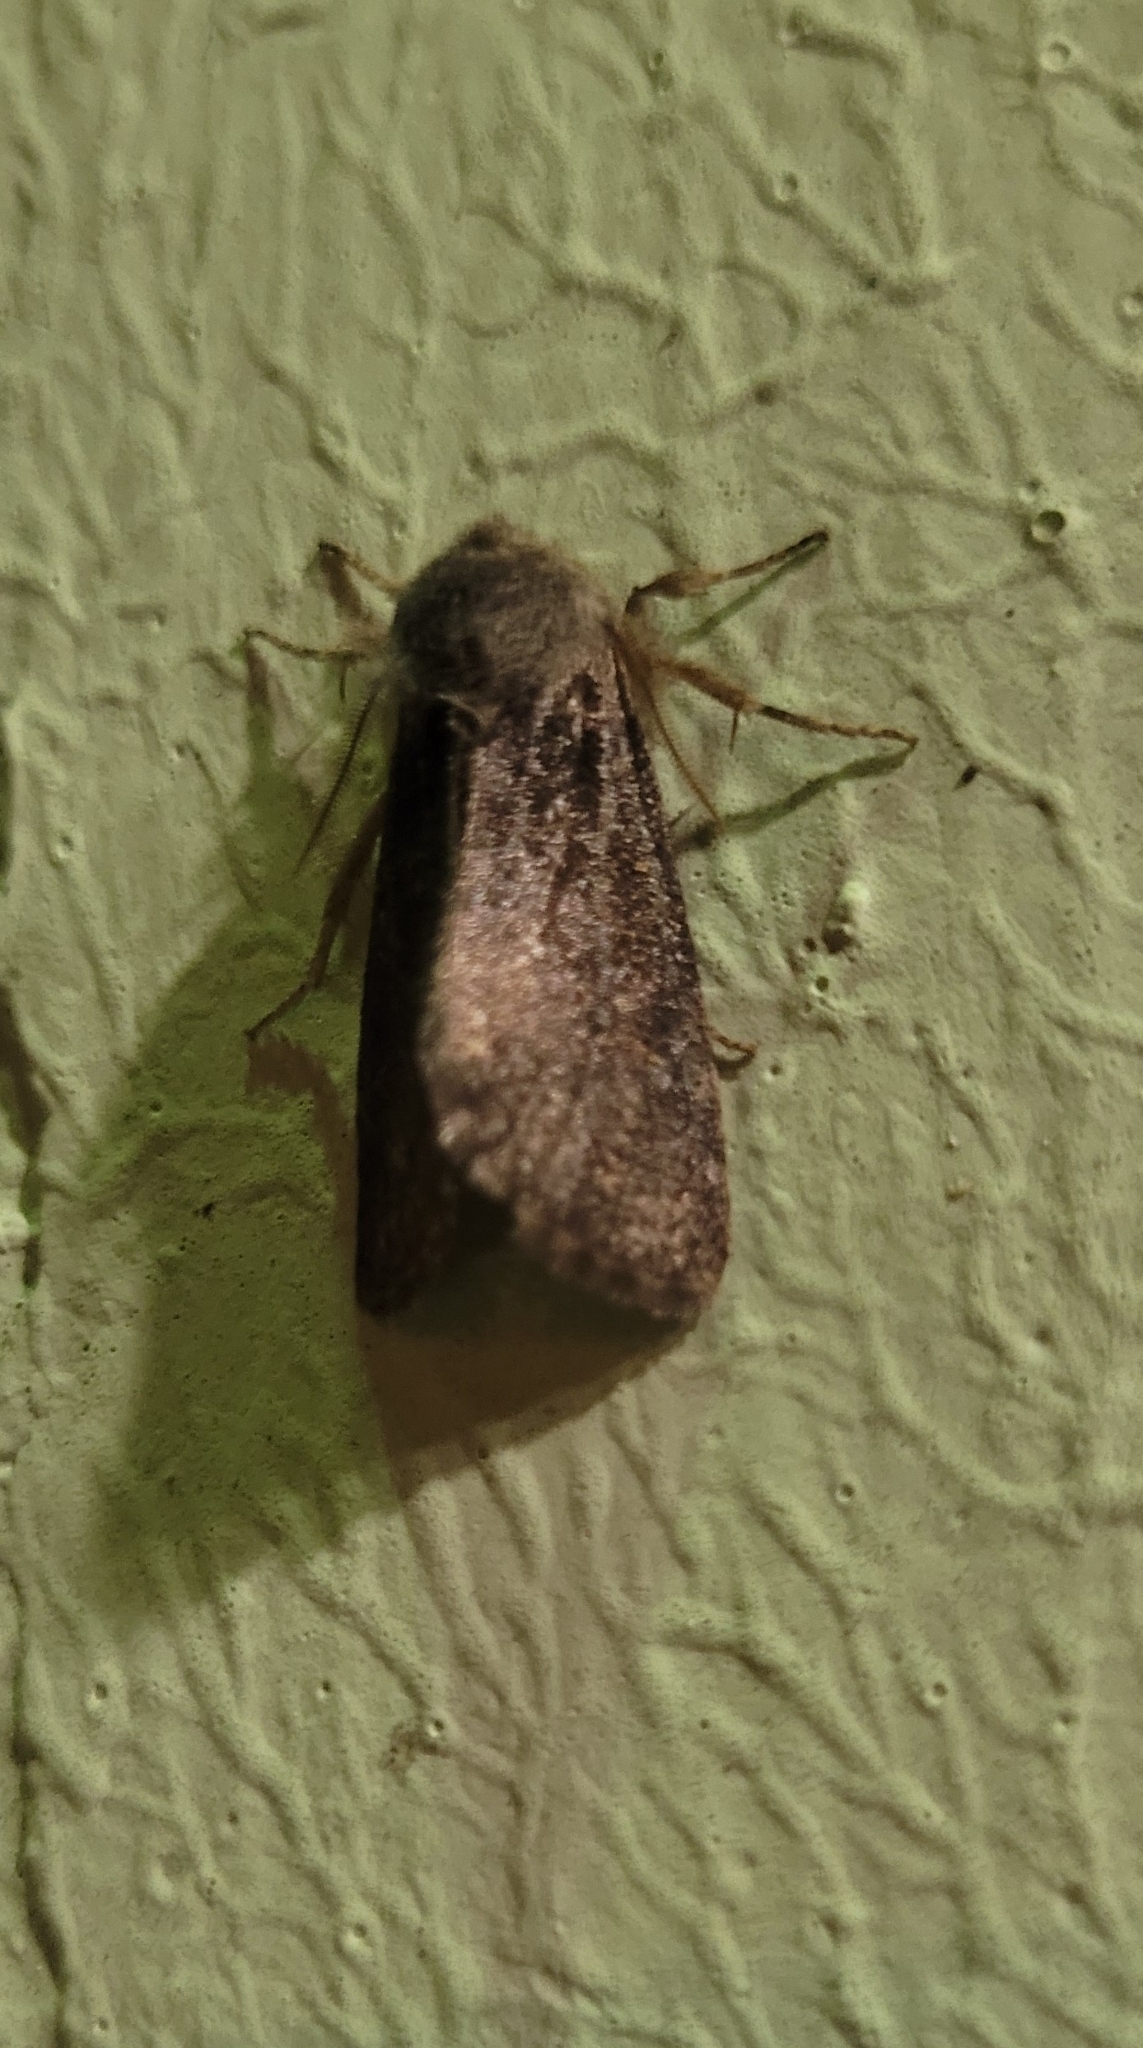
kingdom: Animalia
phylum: Arthropoda
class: Insecta
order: Lepidoptera
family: Noctuidae
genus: Orthosia
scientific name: Orthosia populeti
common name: Lead-coloured drab
